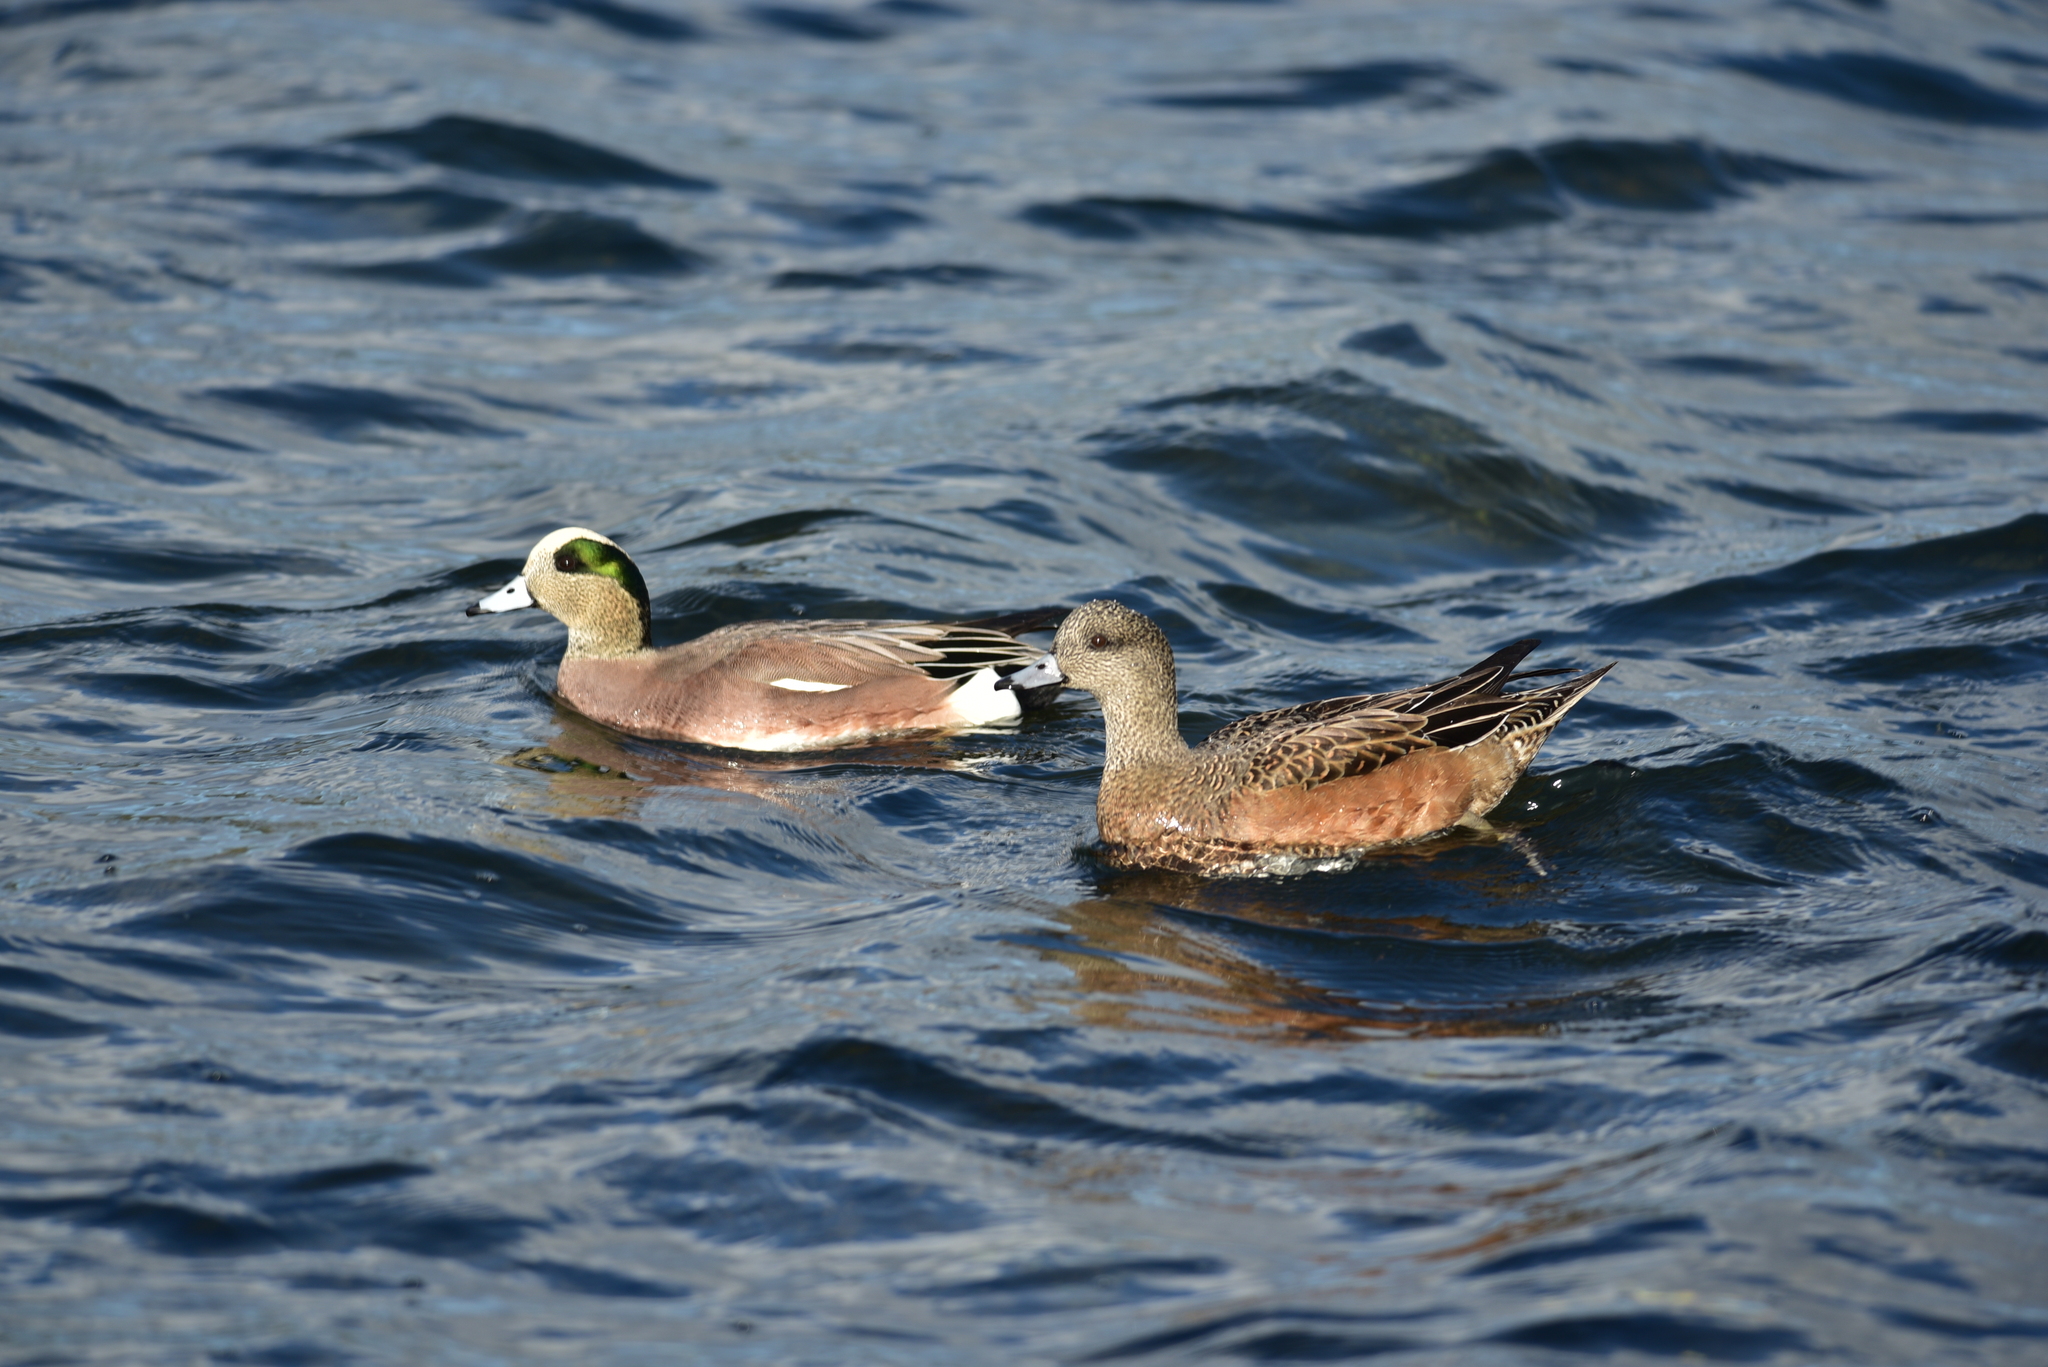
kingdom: Animalia
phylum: Chordata
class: Aves
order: Anseriformes
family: Anatidae
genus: Mareca
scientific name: Mareca americana
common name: American wigeon
